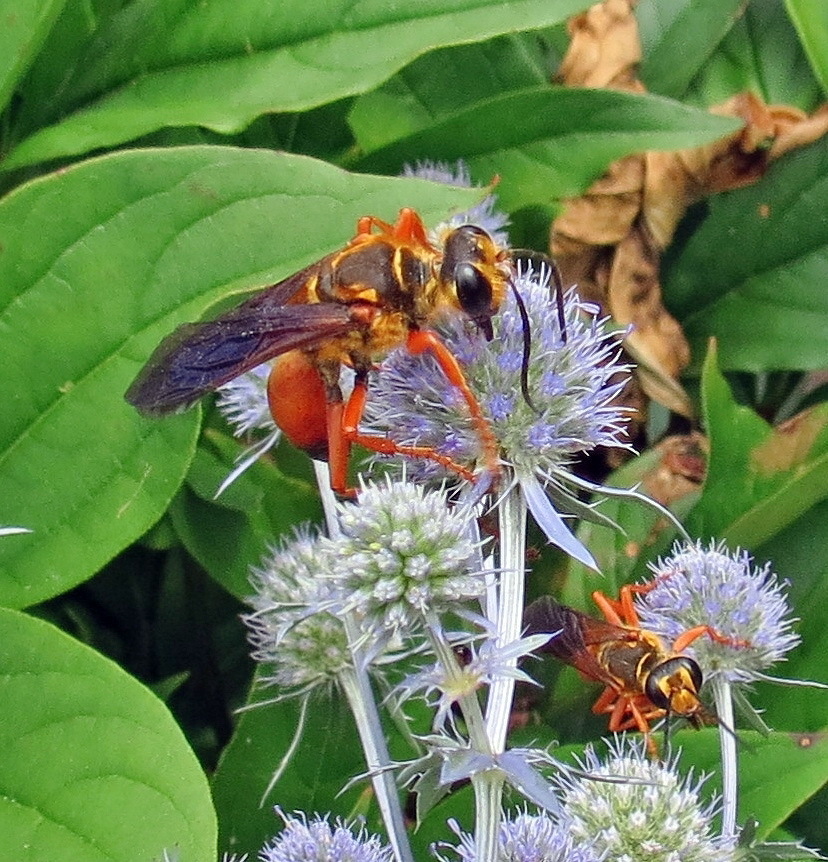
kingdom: Animalia
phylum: Arthropoda
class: Insecta
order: Hymenoptera
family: Sphecidae
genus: Sphex
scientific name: Sphex ichneumoneus
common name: Great golden digger wasp
